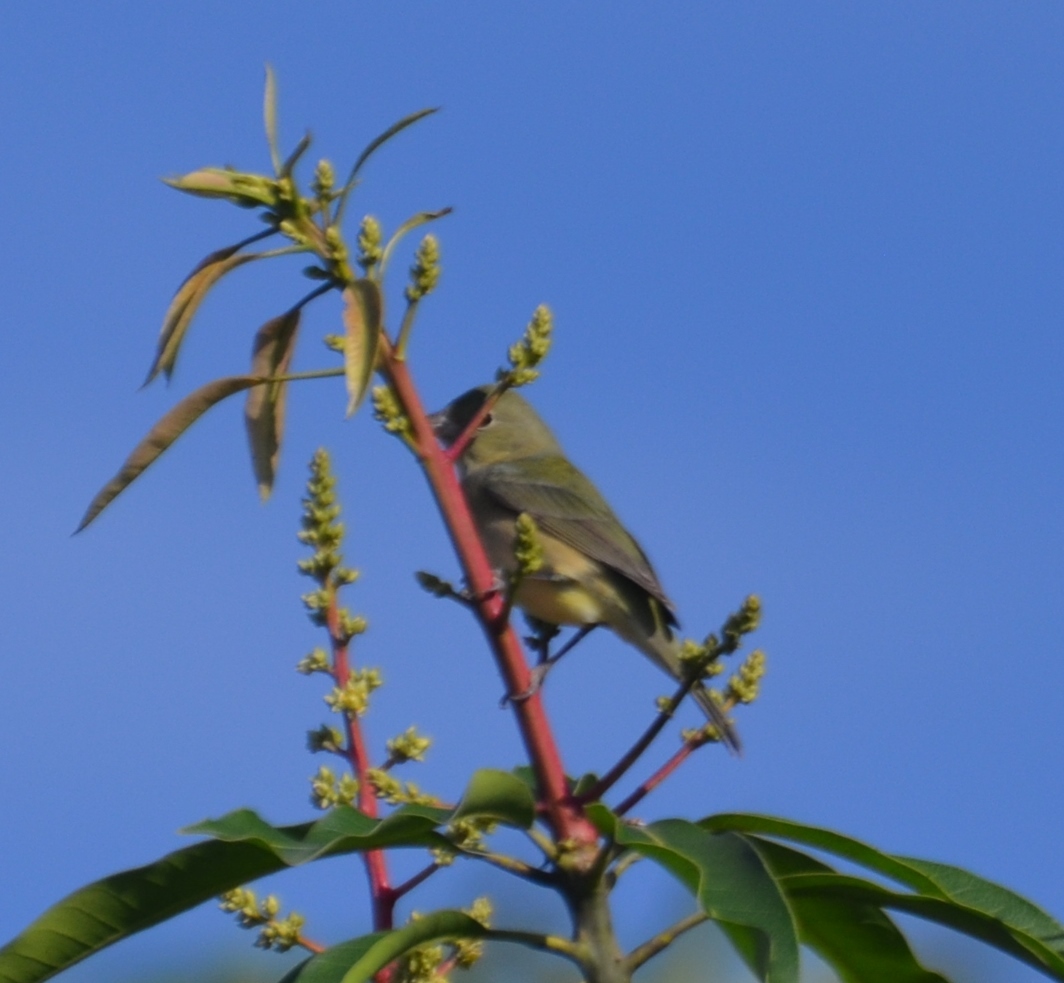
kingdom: Animalia
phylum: Chordata
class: Aves
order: Passeriformes
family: Cardinalidae
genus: Passerina
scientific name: Passerina ciris
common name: Painted bunting
